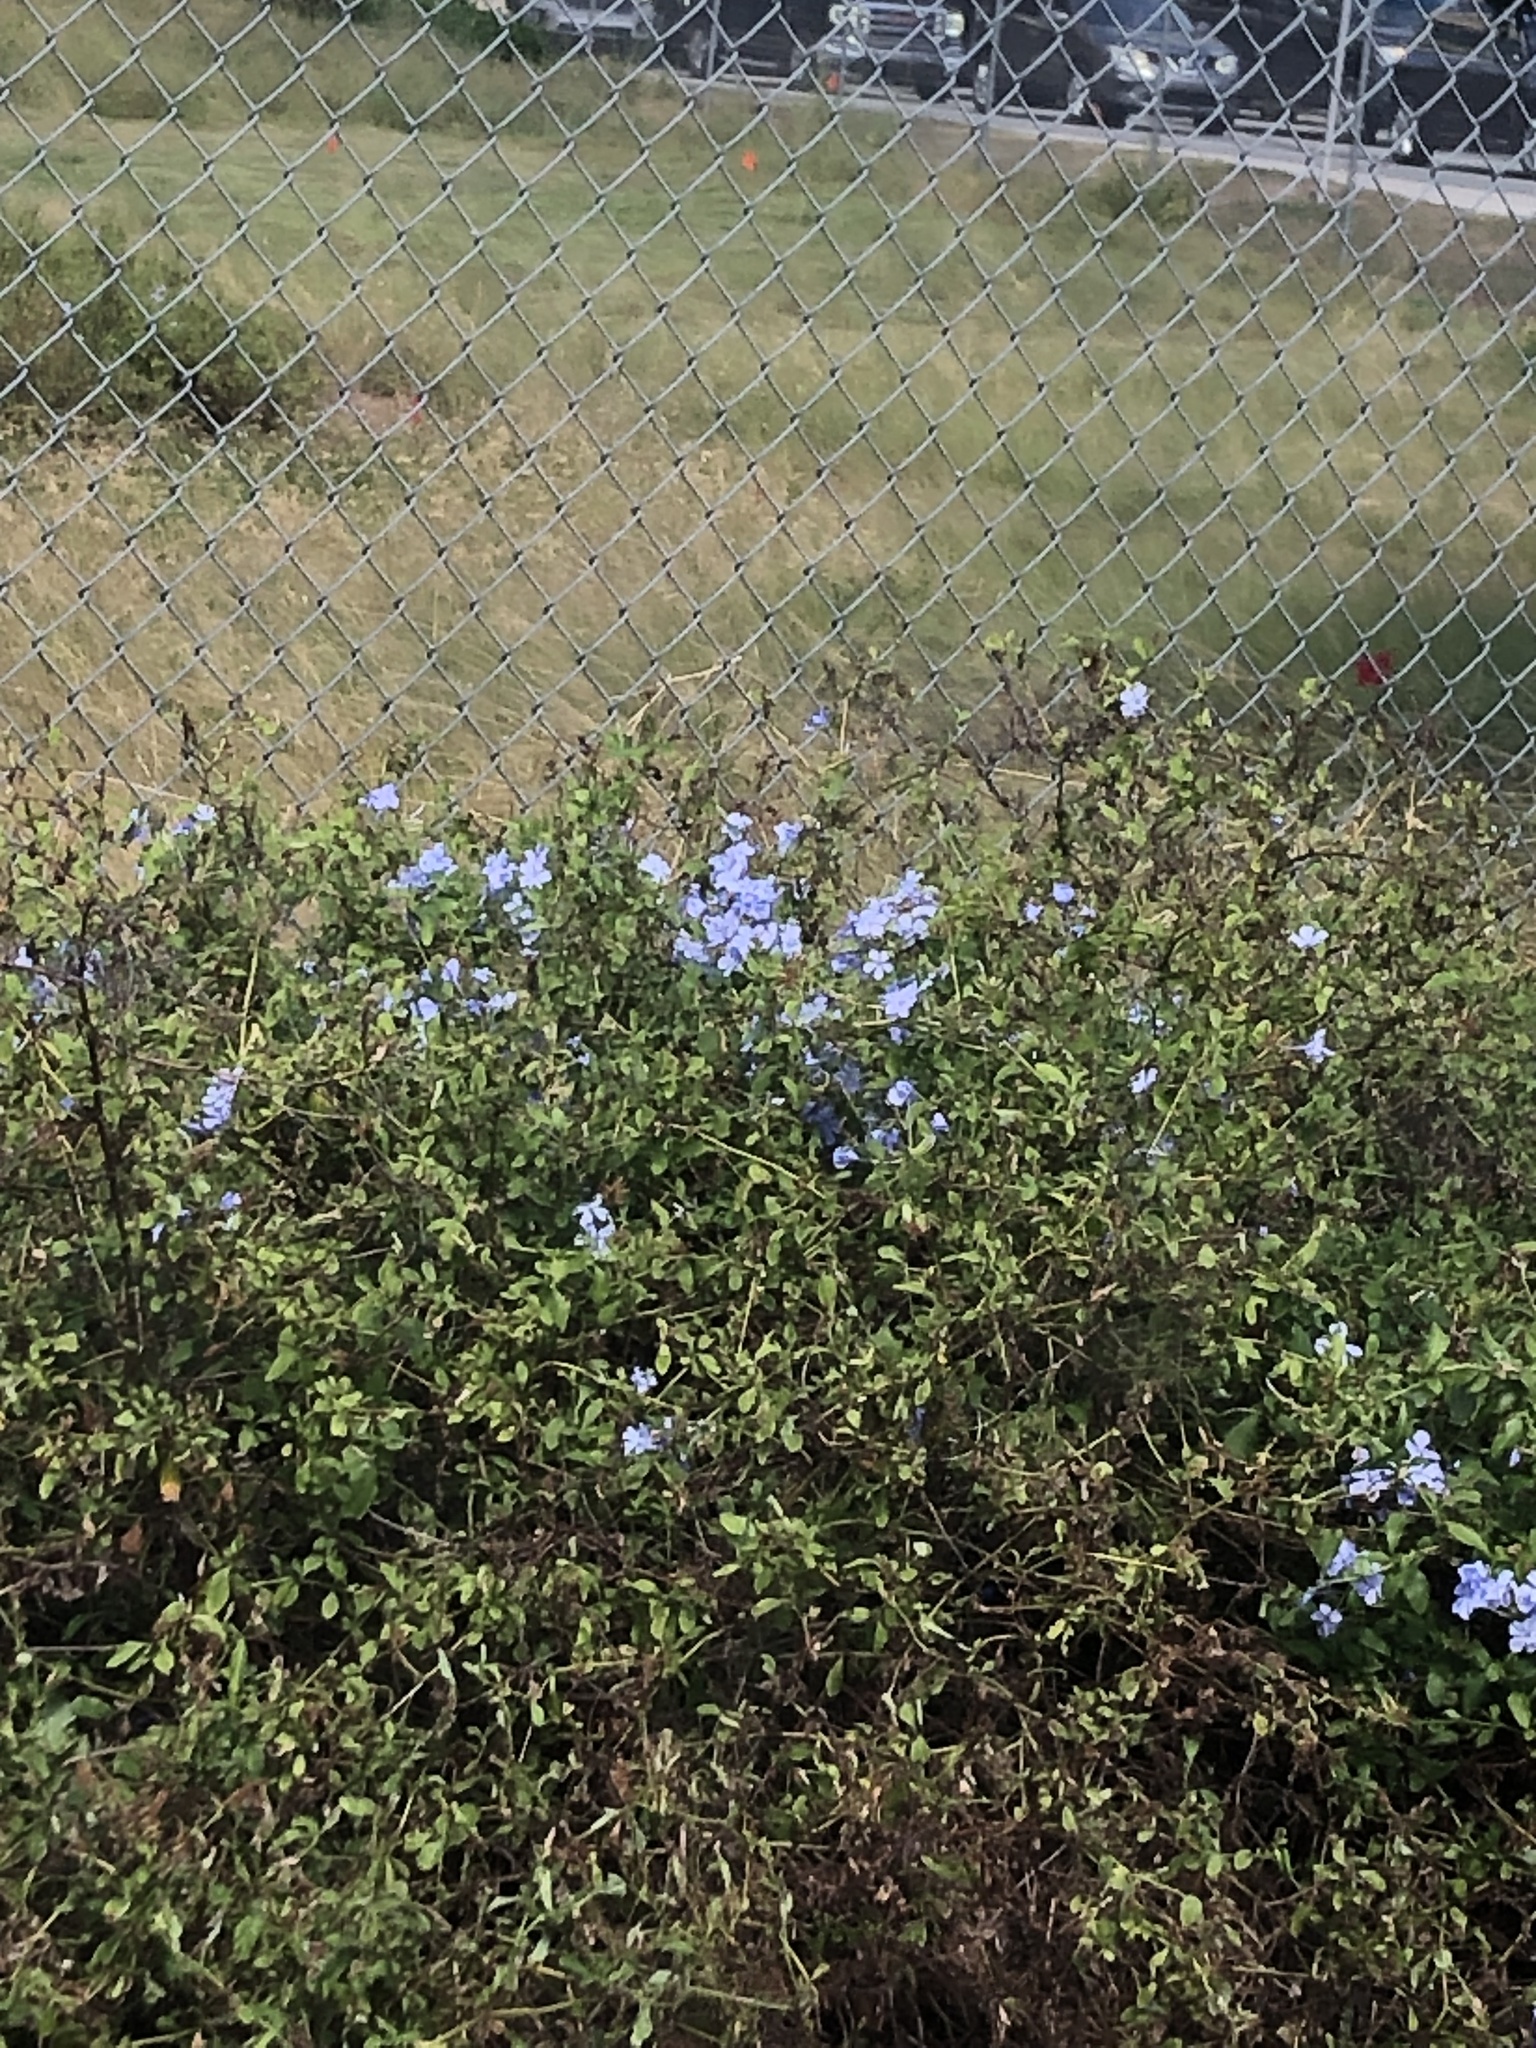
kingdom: Plantae
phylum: Tracheophyta
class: Magnoliopsida
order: Caryophyllales
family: Plumbaginaceae
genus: Plumbago
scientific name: Plumbago auriculata
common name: Cape leadwort
